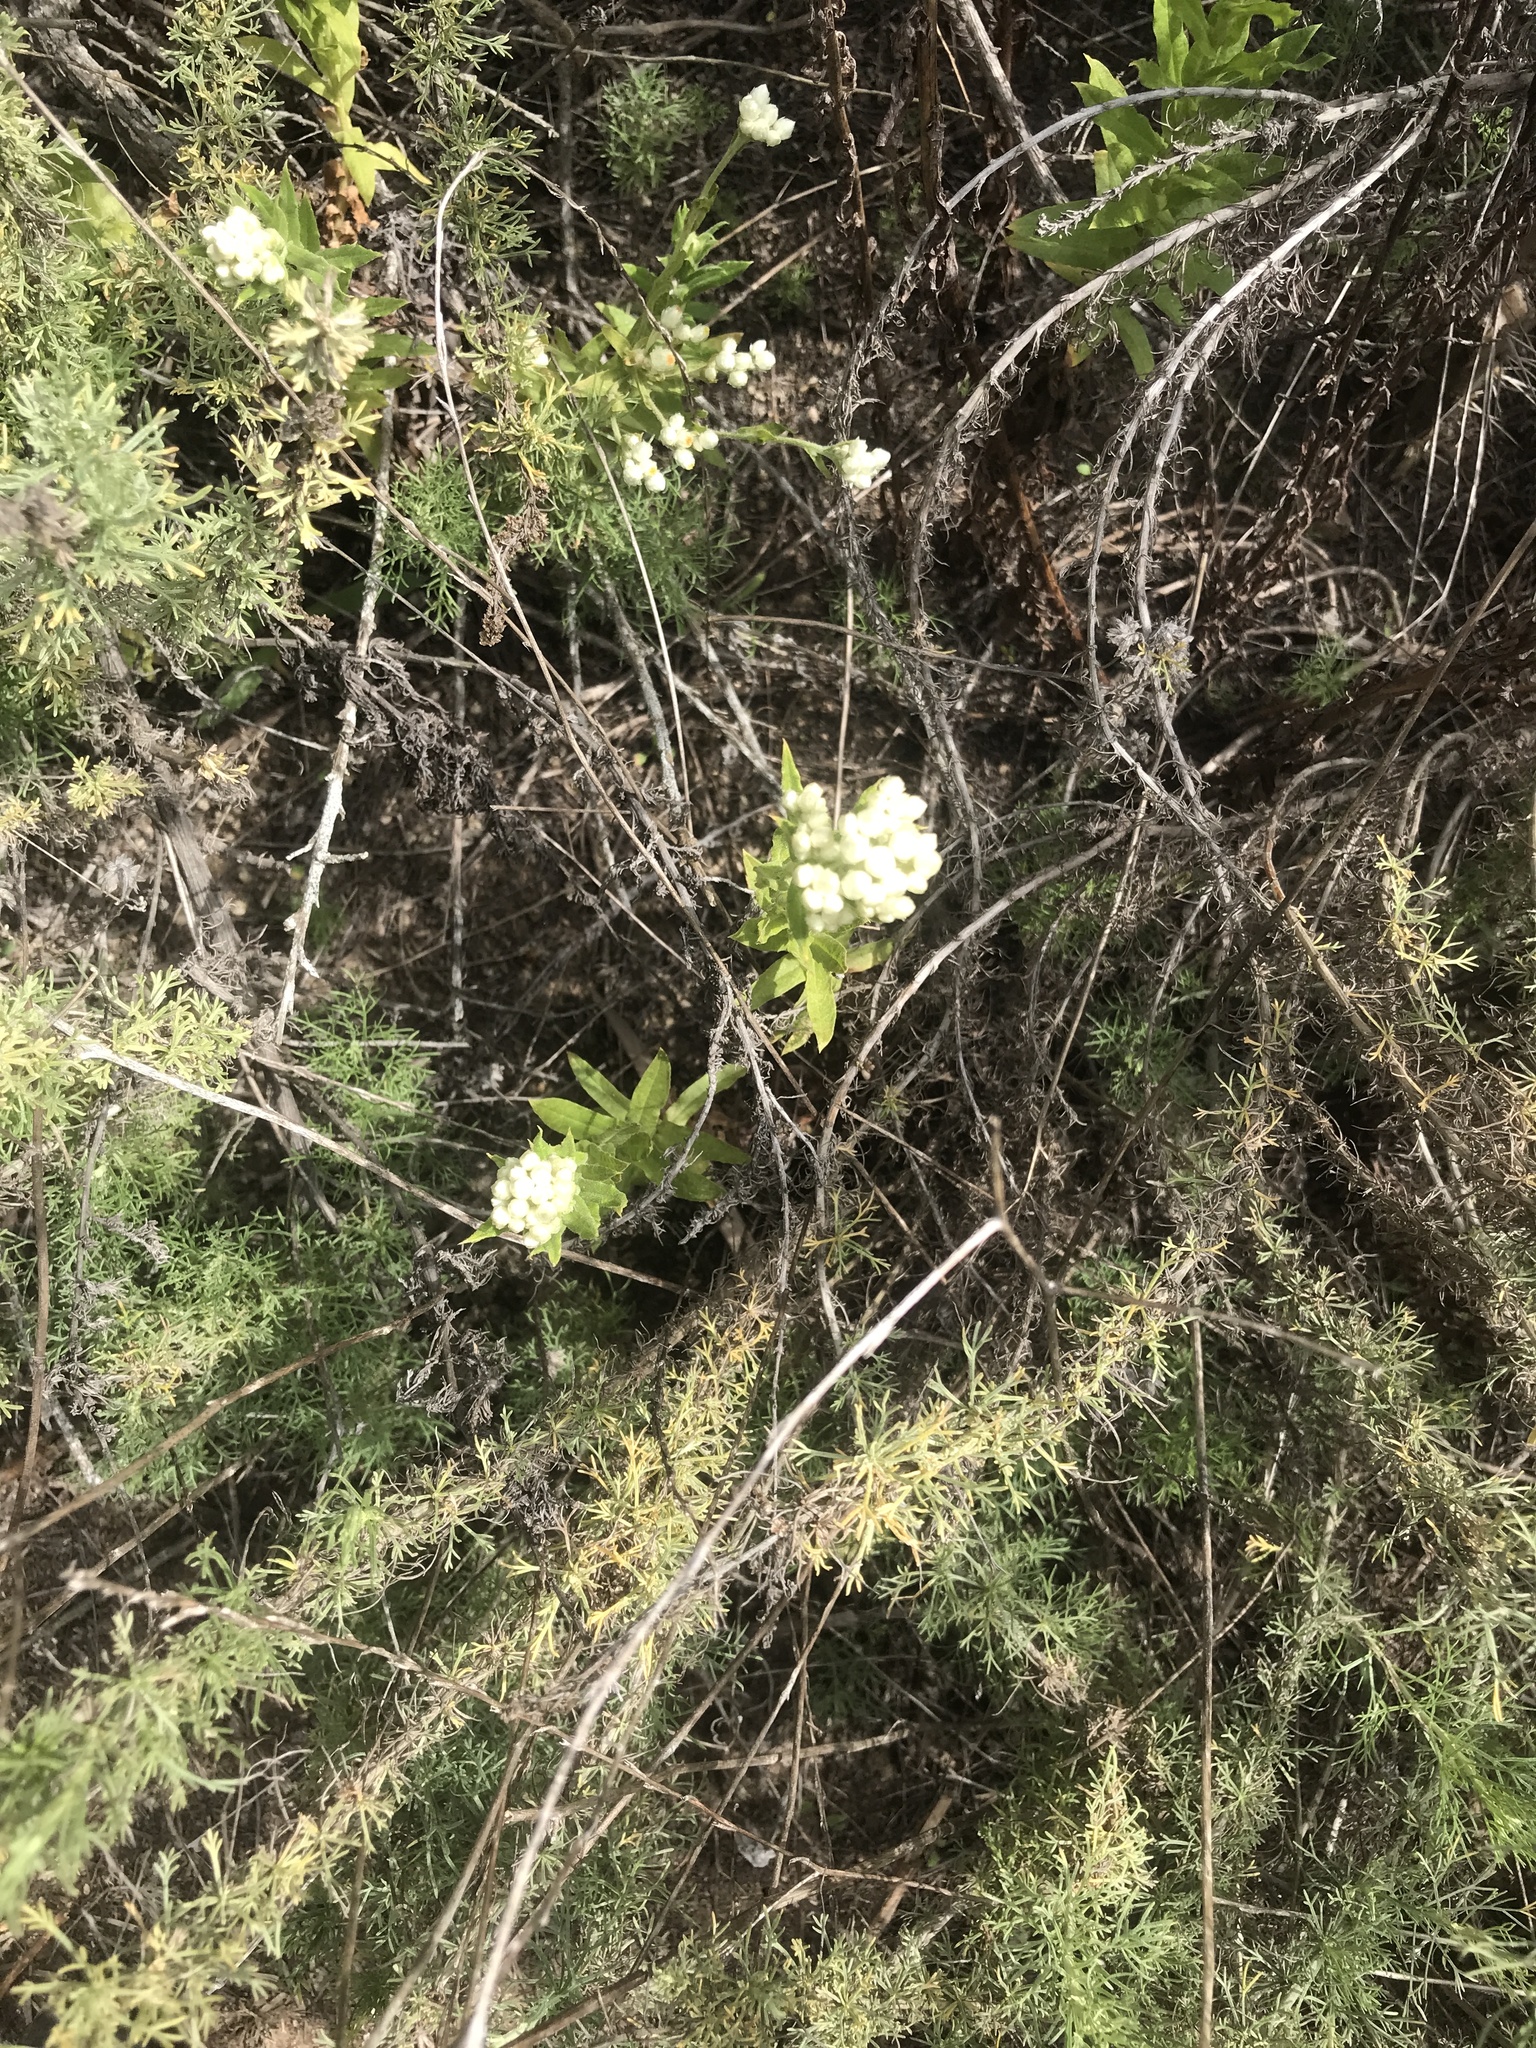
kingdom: Plantae
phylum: Tracheophyta
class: Magnoliopsida
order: Asterales
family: Asteraceae
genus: Pseudognaphalium
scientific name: Pseudognaphalium californicum
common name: California rabbit-tobacco
